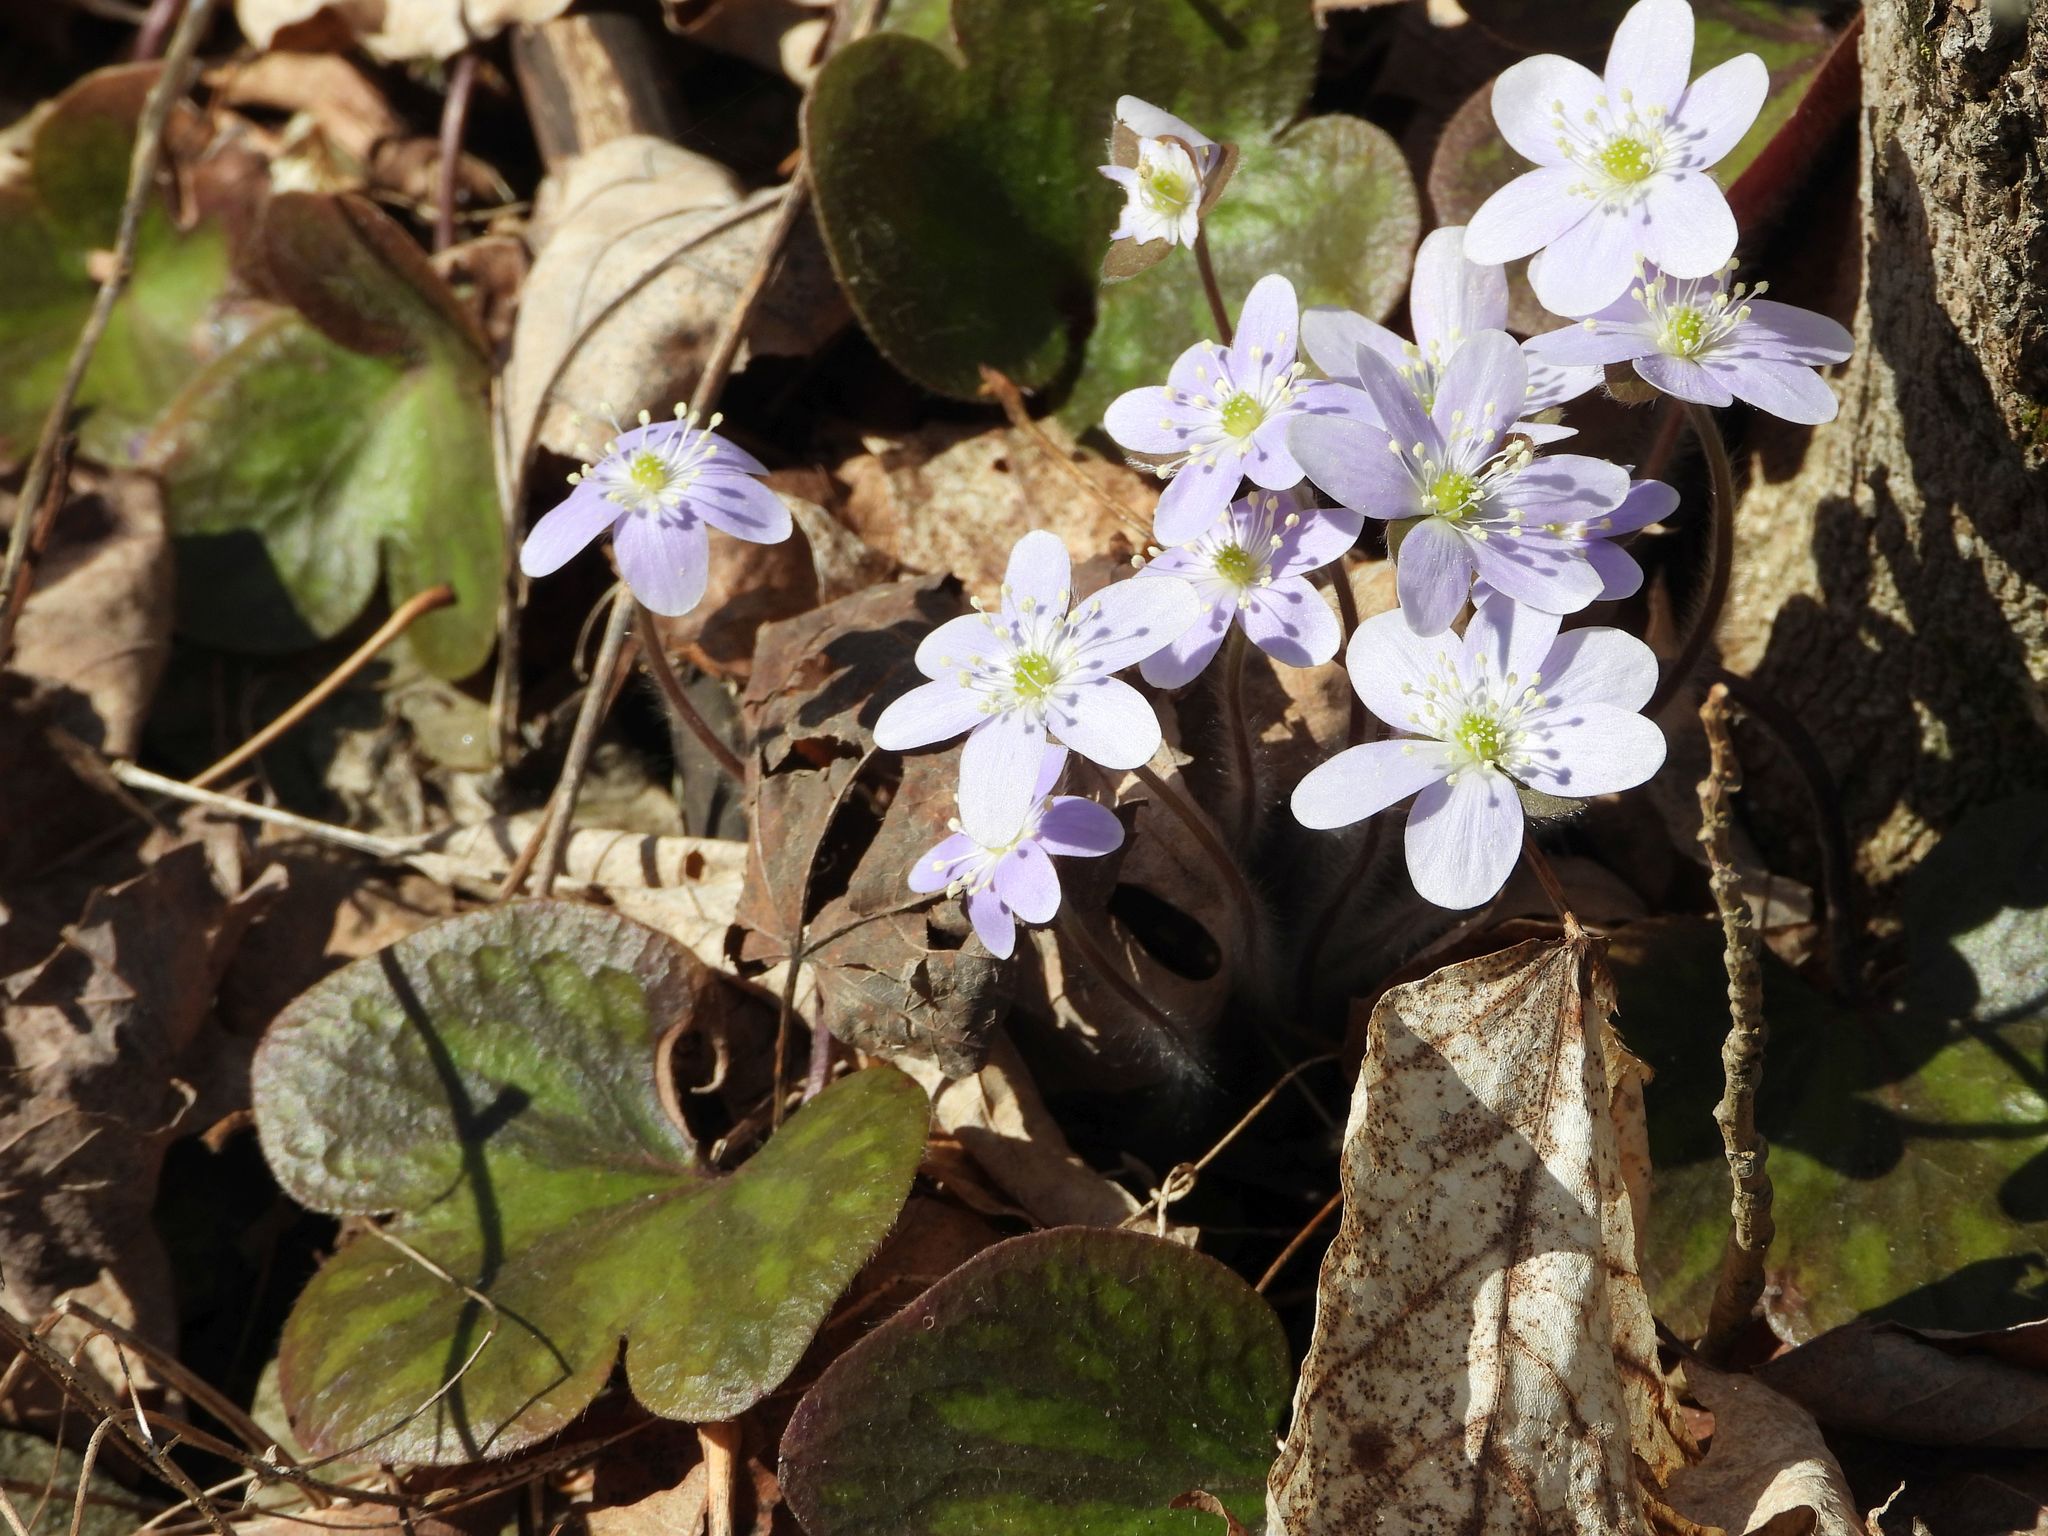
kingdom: Plantae
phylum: Tracheophyta
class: Magnoliopsida
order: Ranunculales
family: Ranunculaceae
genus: Hepatica
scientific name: Hepatica americana
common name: American hepatica
